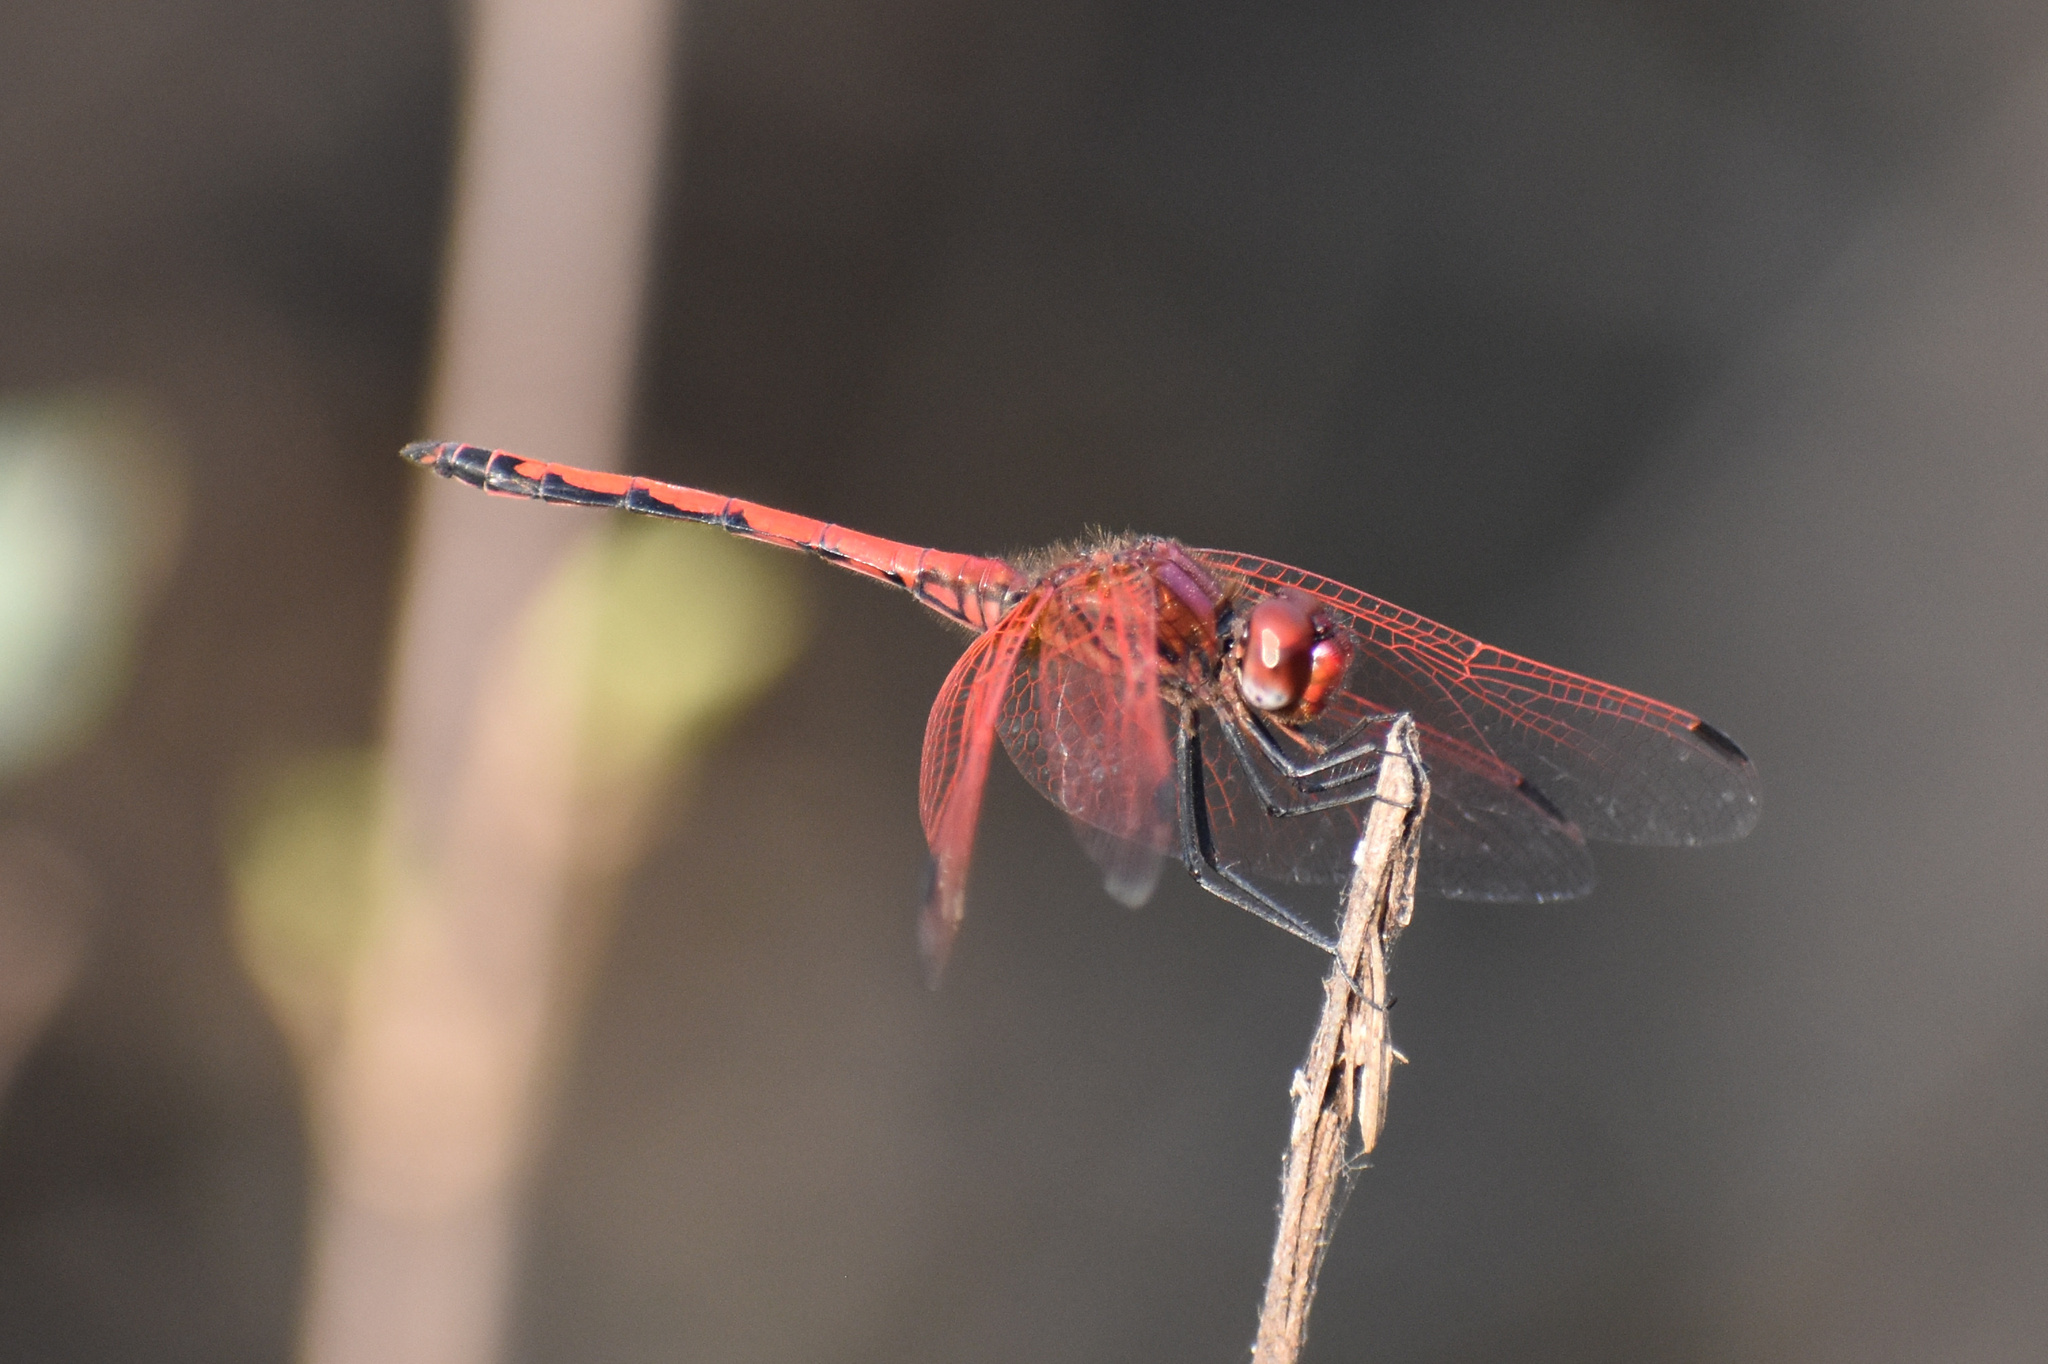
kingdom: Animalia
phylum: Arthropoda
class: Insecta
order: Odonata
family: Libellulidae
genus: Trithemis
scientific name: Trithemis arteriosa
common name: Red-veined dropwing
